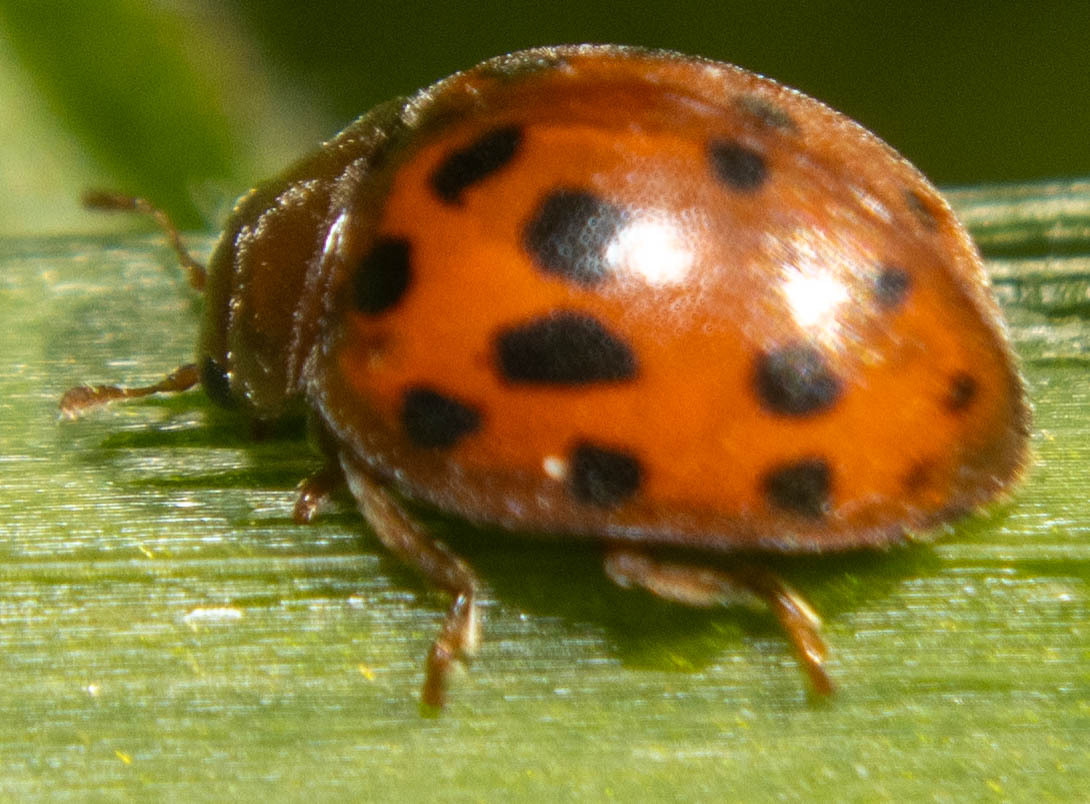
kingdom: Animalia
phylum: Arthropoda
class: Insecta
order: Coleoptera
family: Coccinellidae
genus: Subcoccinella
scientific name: Subcoccinella vigintiquatuorpunctata
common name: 24-spot ladybird
